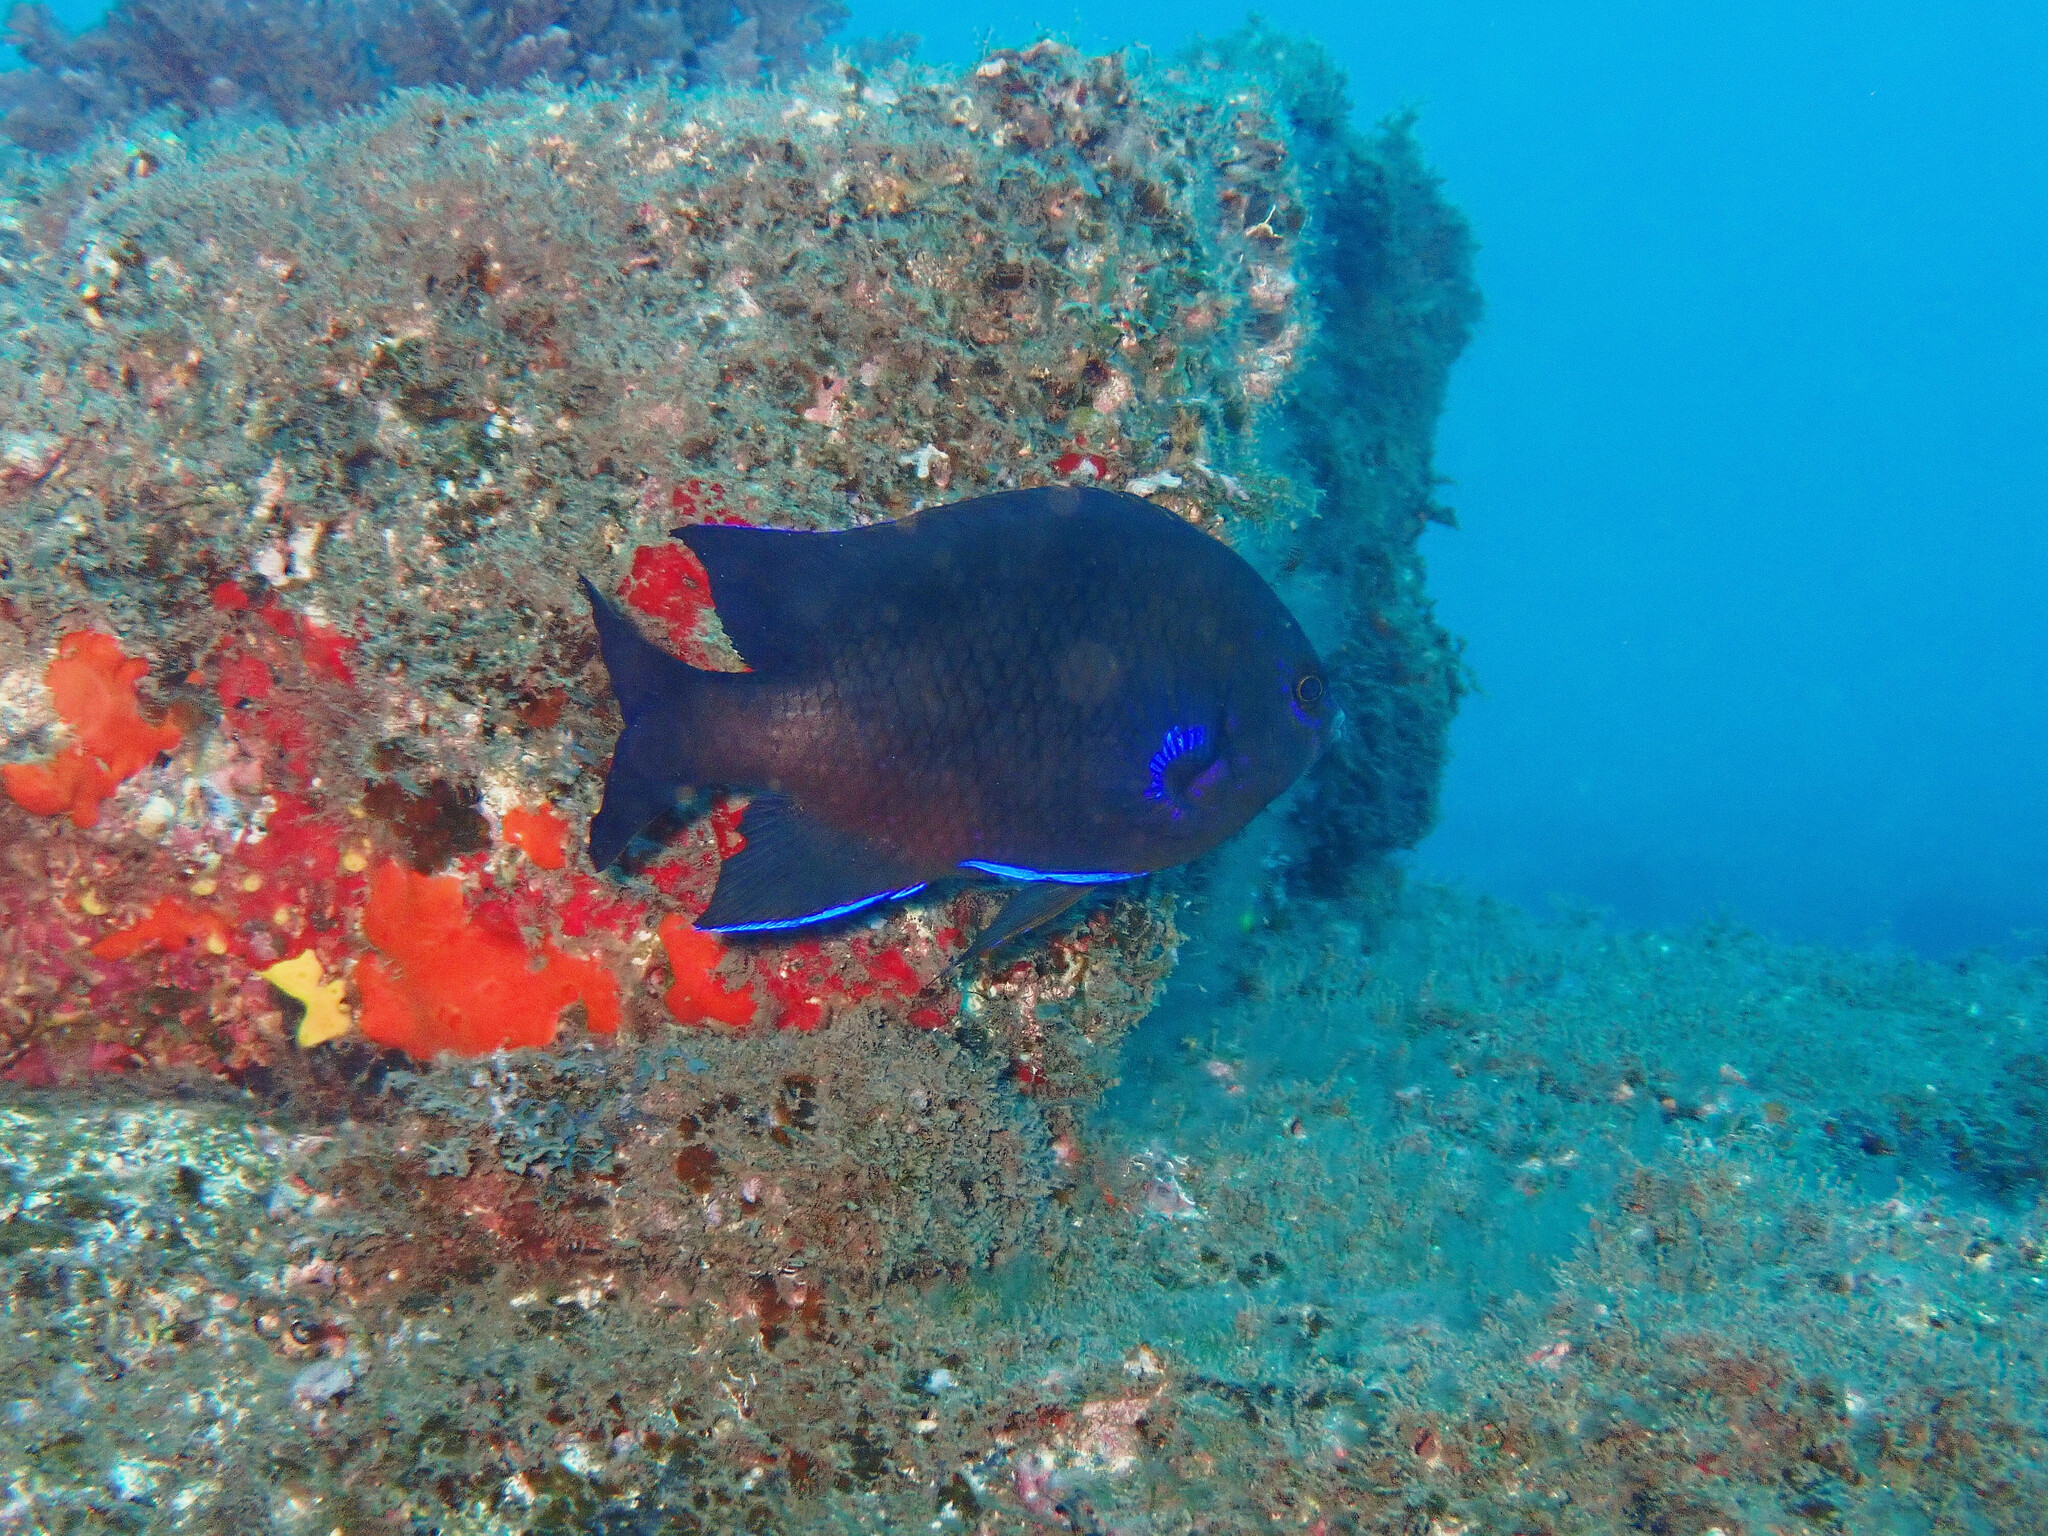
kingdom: Animalia
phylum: Chordata
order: Perciformes
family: Pomacentridae
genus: Similiparma
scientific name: Similiparma lurida
